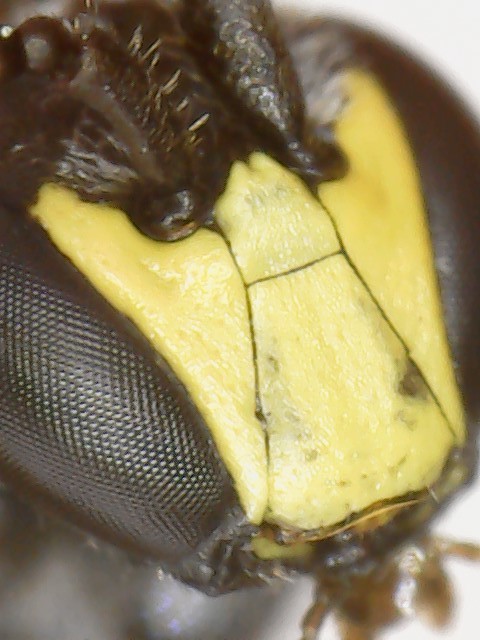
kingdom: Animalia
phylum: Arthropoda
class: Insecta
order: Hymenoptera
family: Colletidae
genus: Hylaeus
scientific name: Hylaeus modestus
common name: Yellow-faced bee
